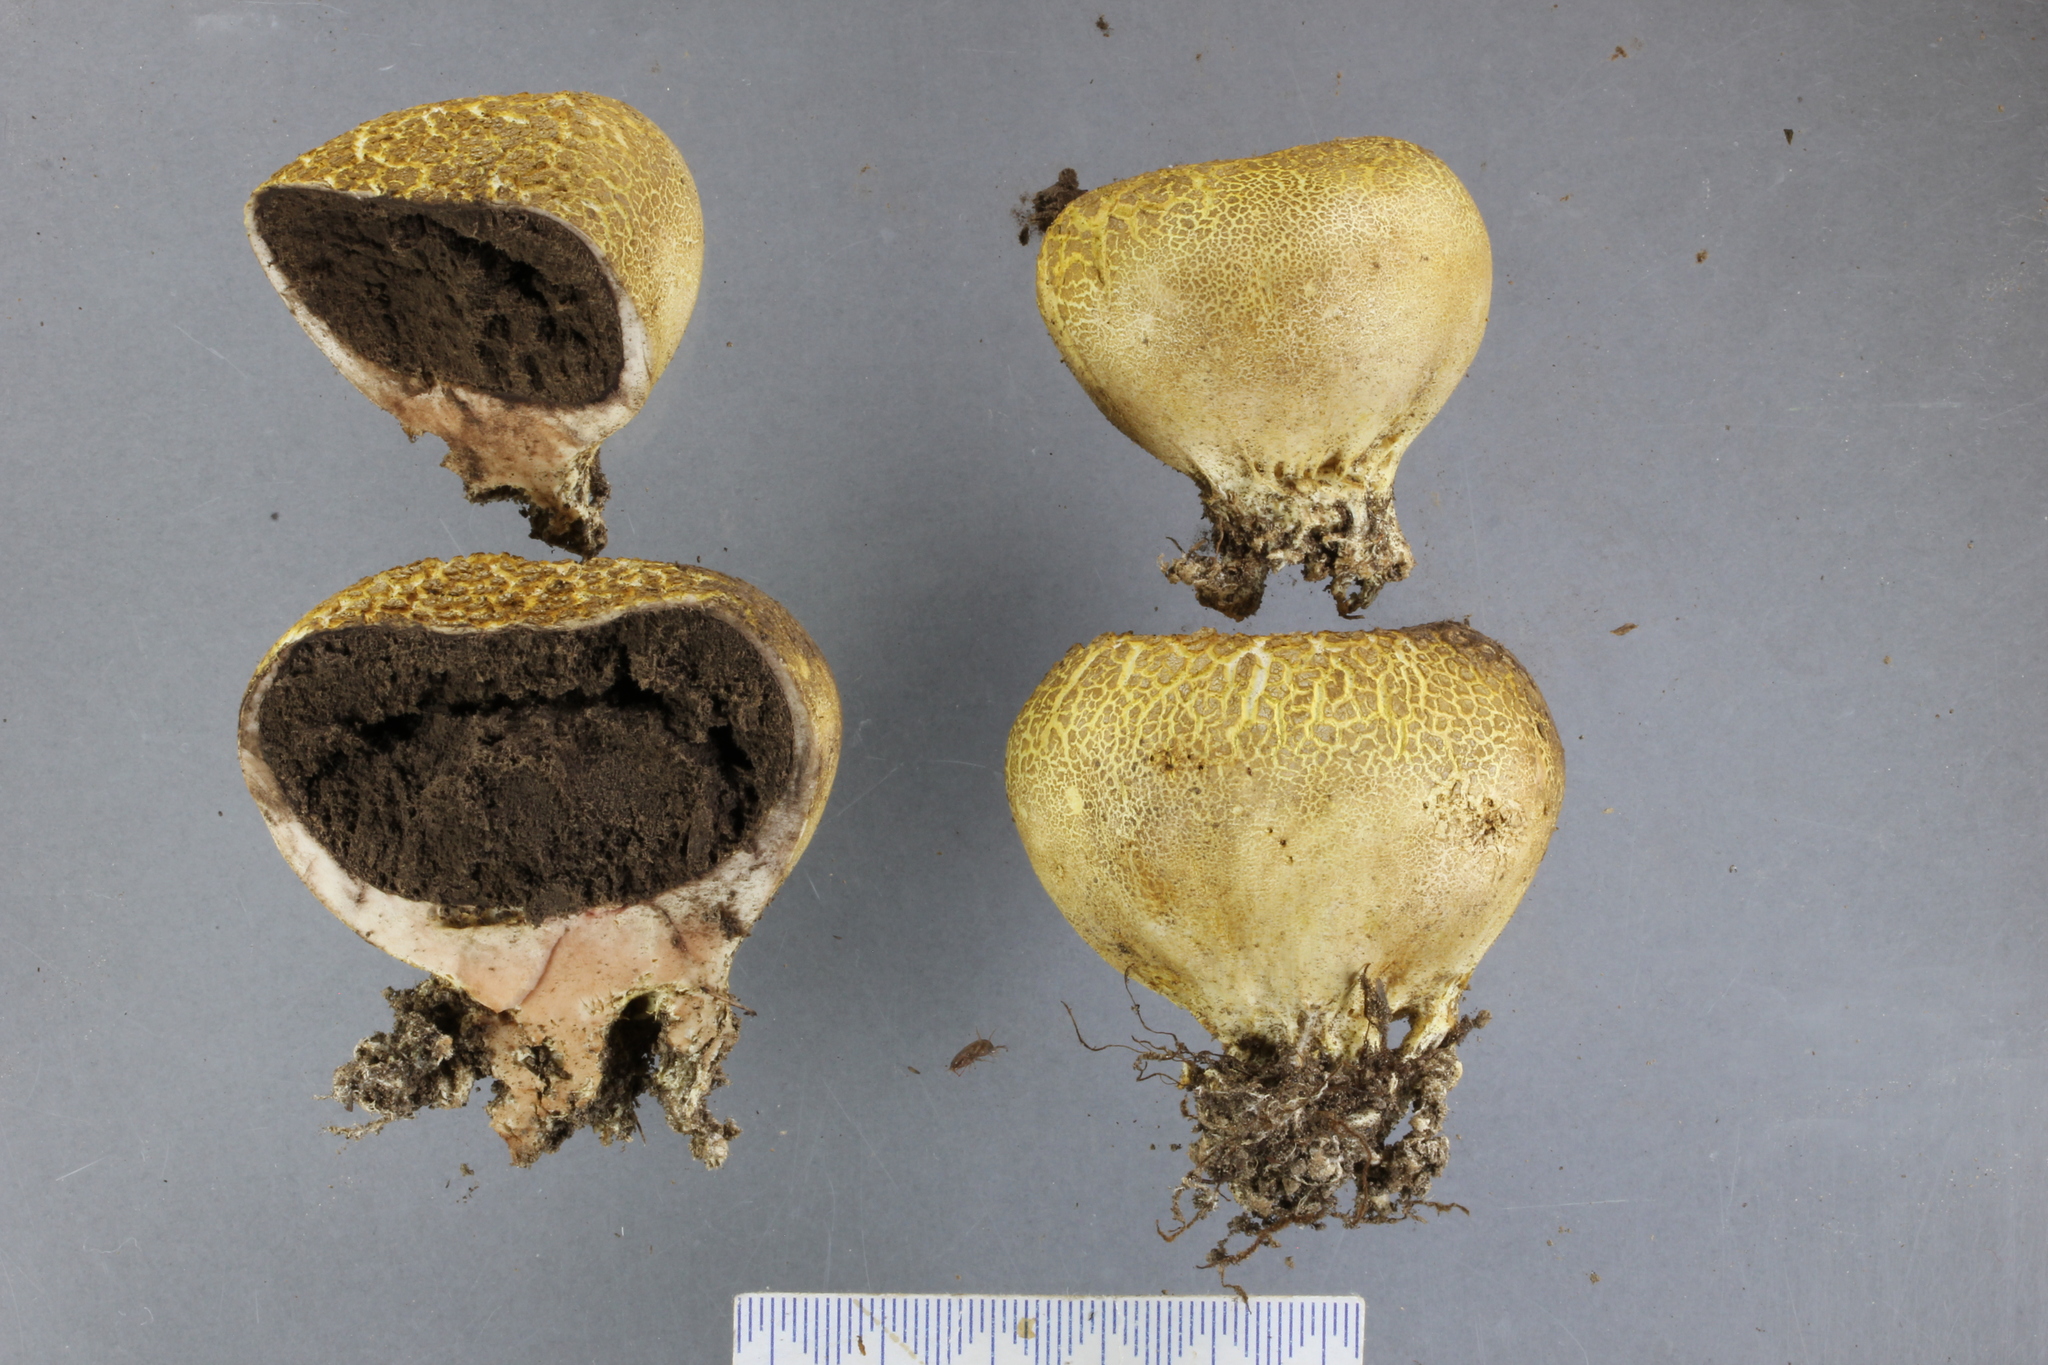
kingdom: Fungi
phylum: Basidiomycota
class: Agaricomycetes
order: Boletales
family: Sclerodermataceae
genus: Scleroderma
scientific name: Scleroderma
